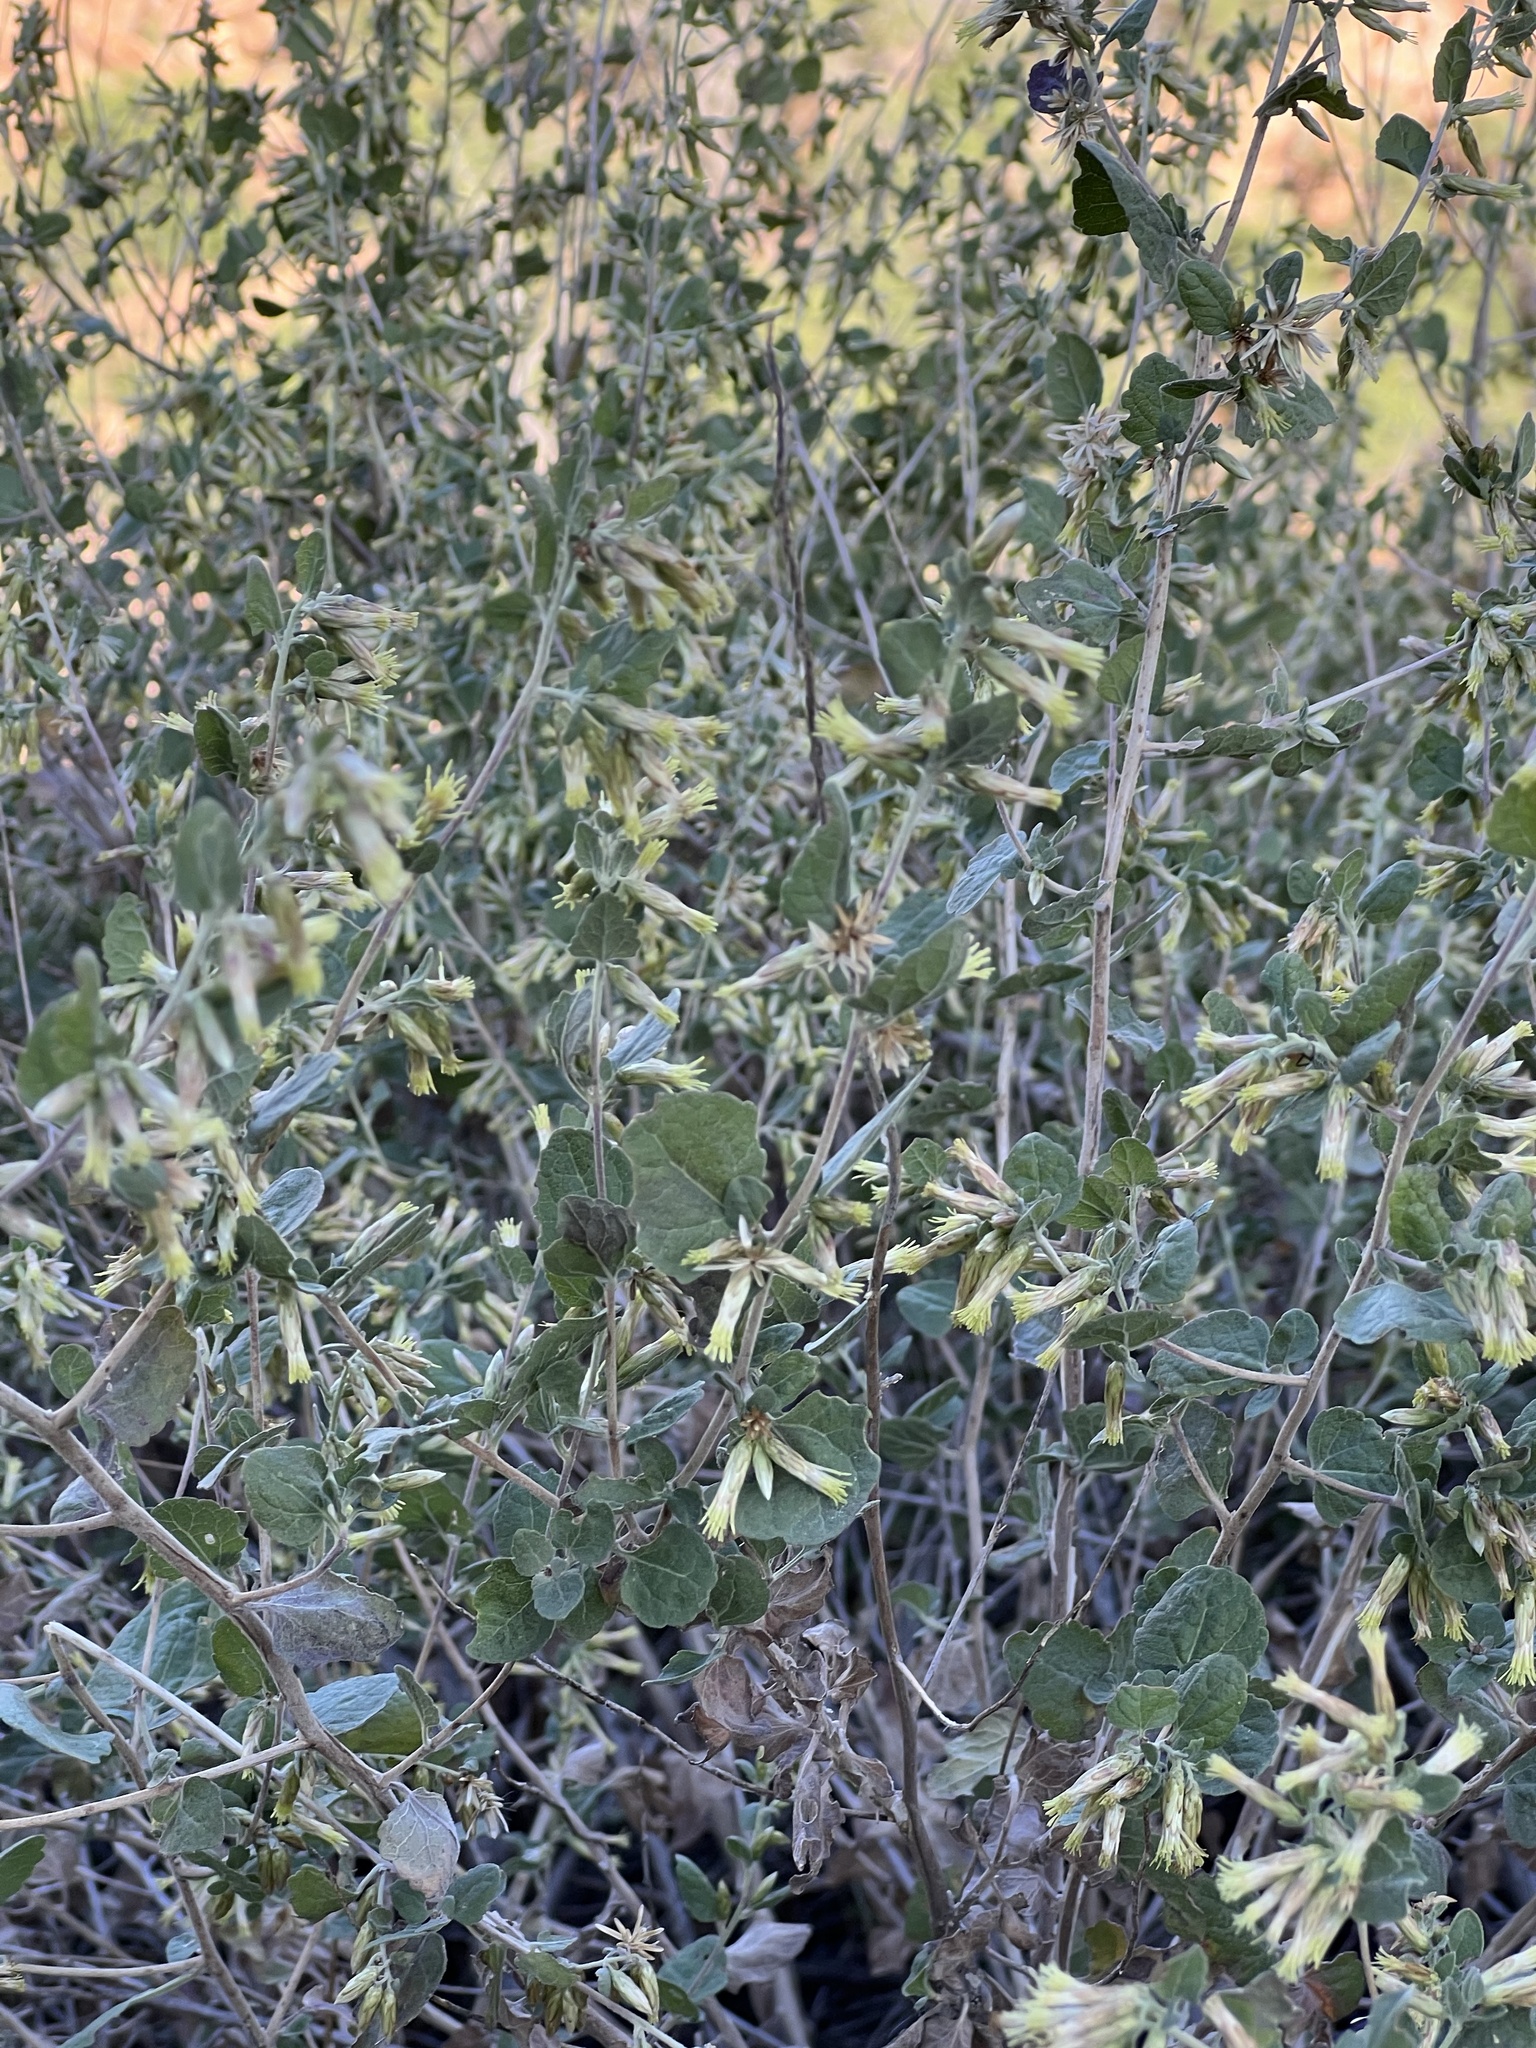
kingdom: Plantae
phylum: Tracheophyta
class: Magnoliopsida
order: Asterales
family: Asteraceae
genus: Brickellia
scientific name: Brickellia californica
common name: California brickellbush
